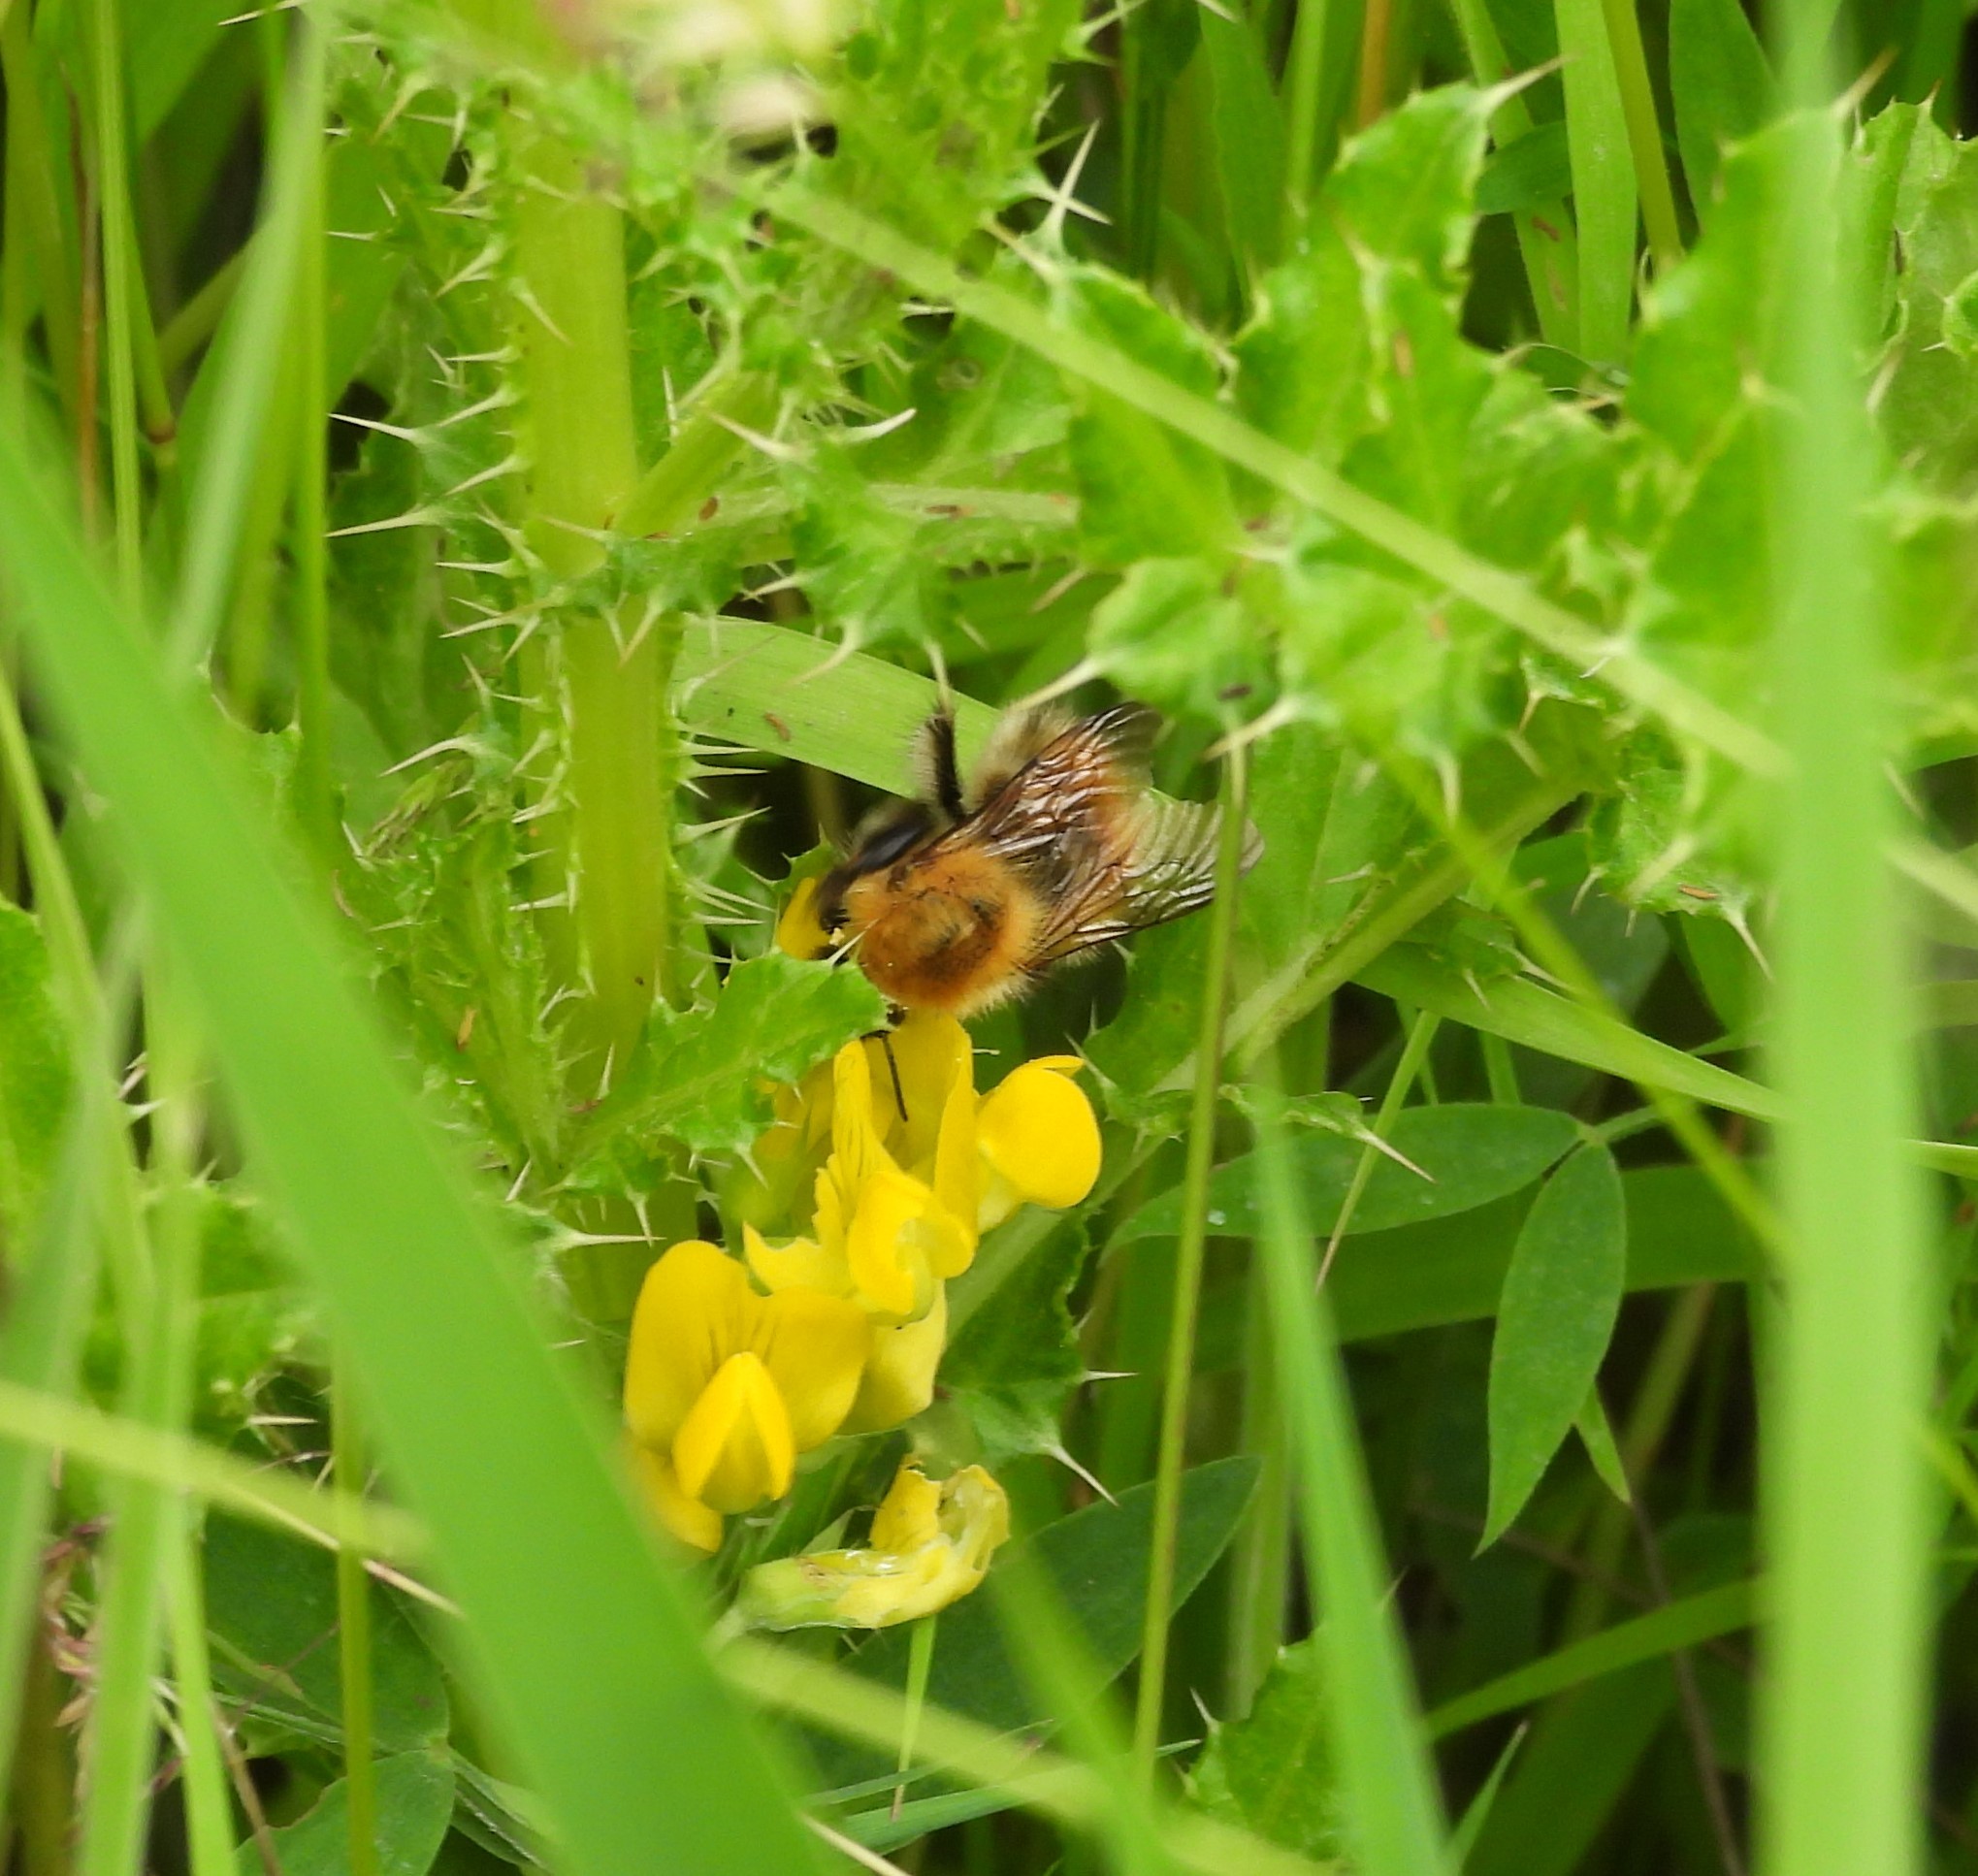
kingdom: Animalia
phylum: Arthropoda
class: Insecta
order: Hymenoptera
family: Apidae
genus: Bombus
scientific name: Bombus pascuorum
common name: Common carder bee
